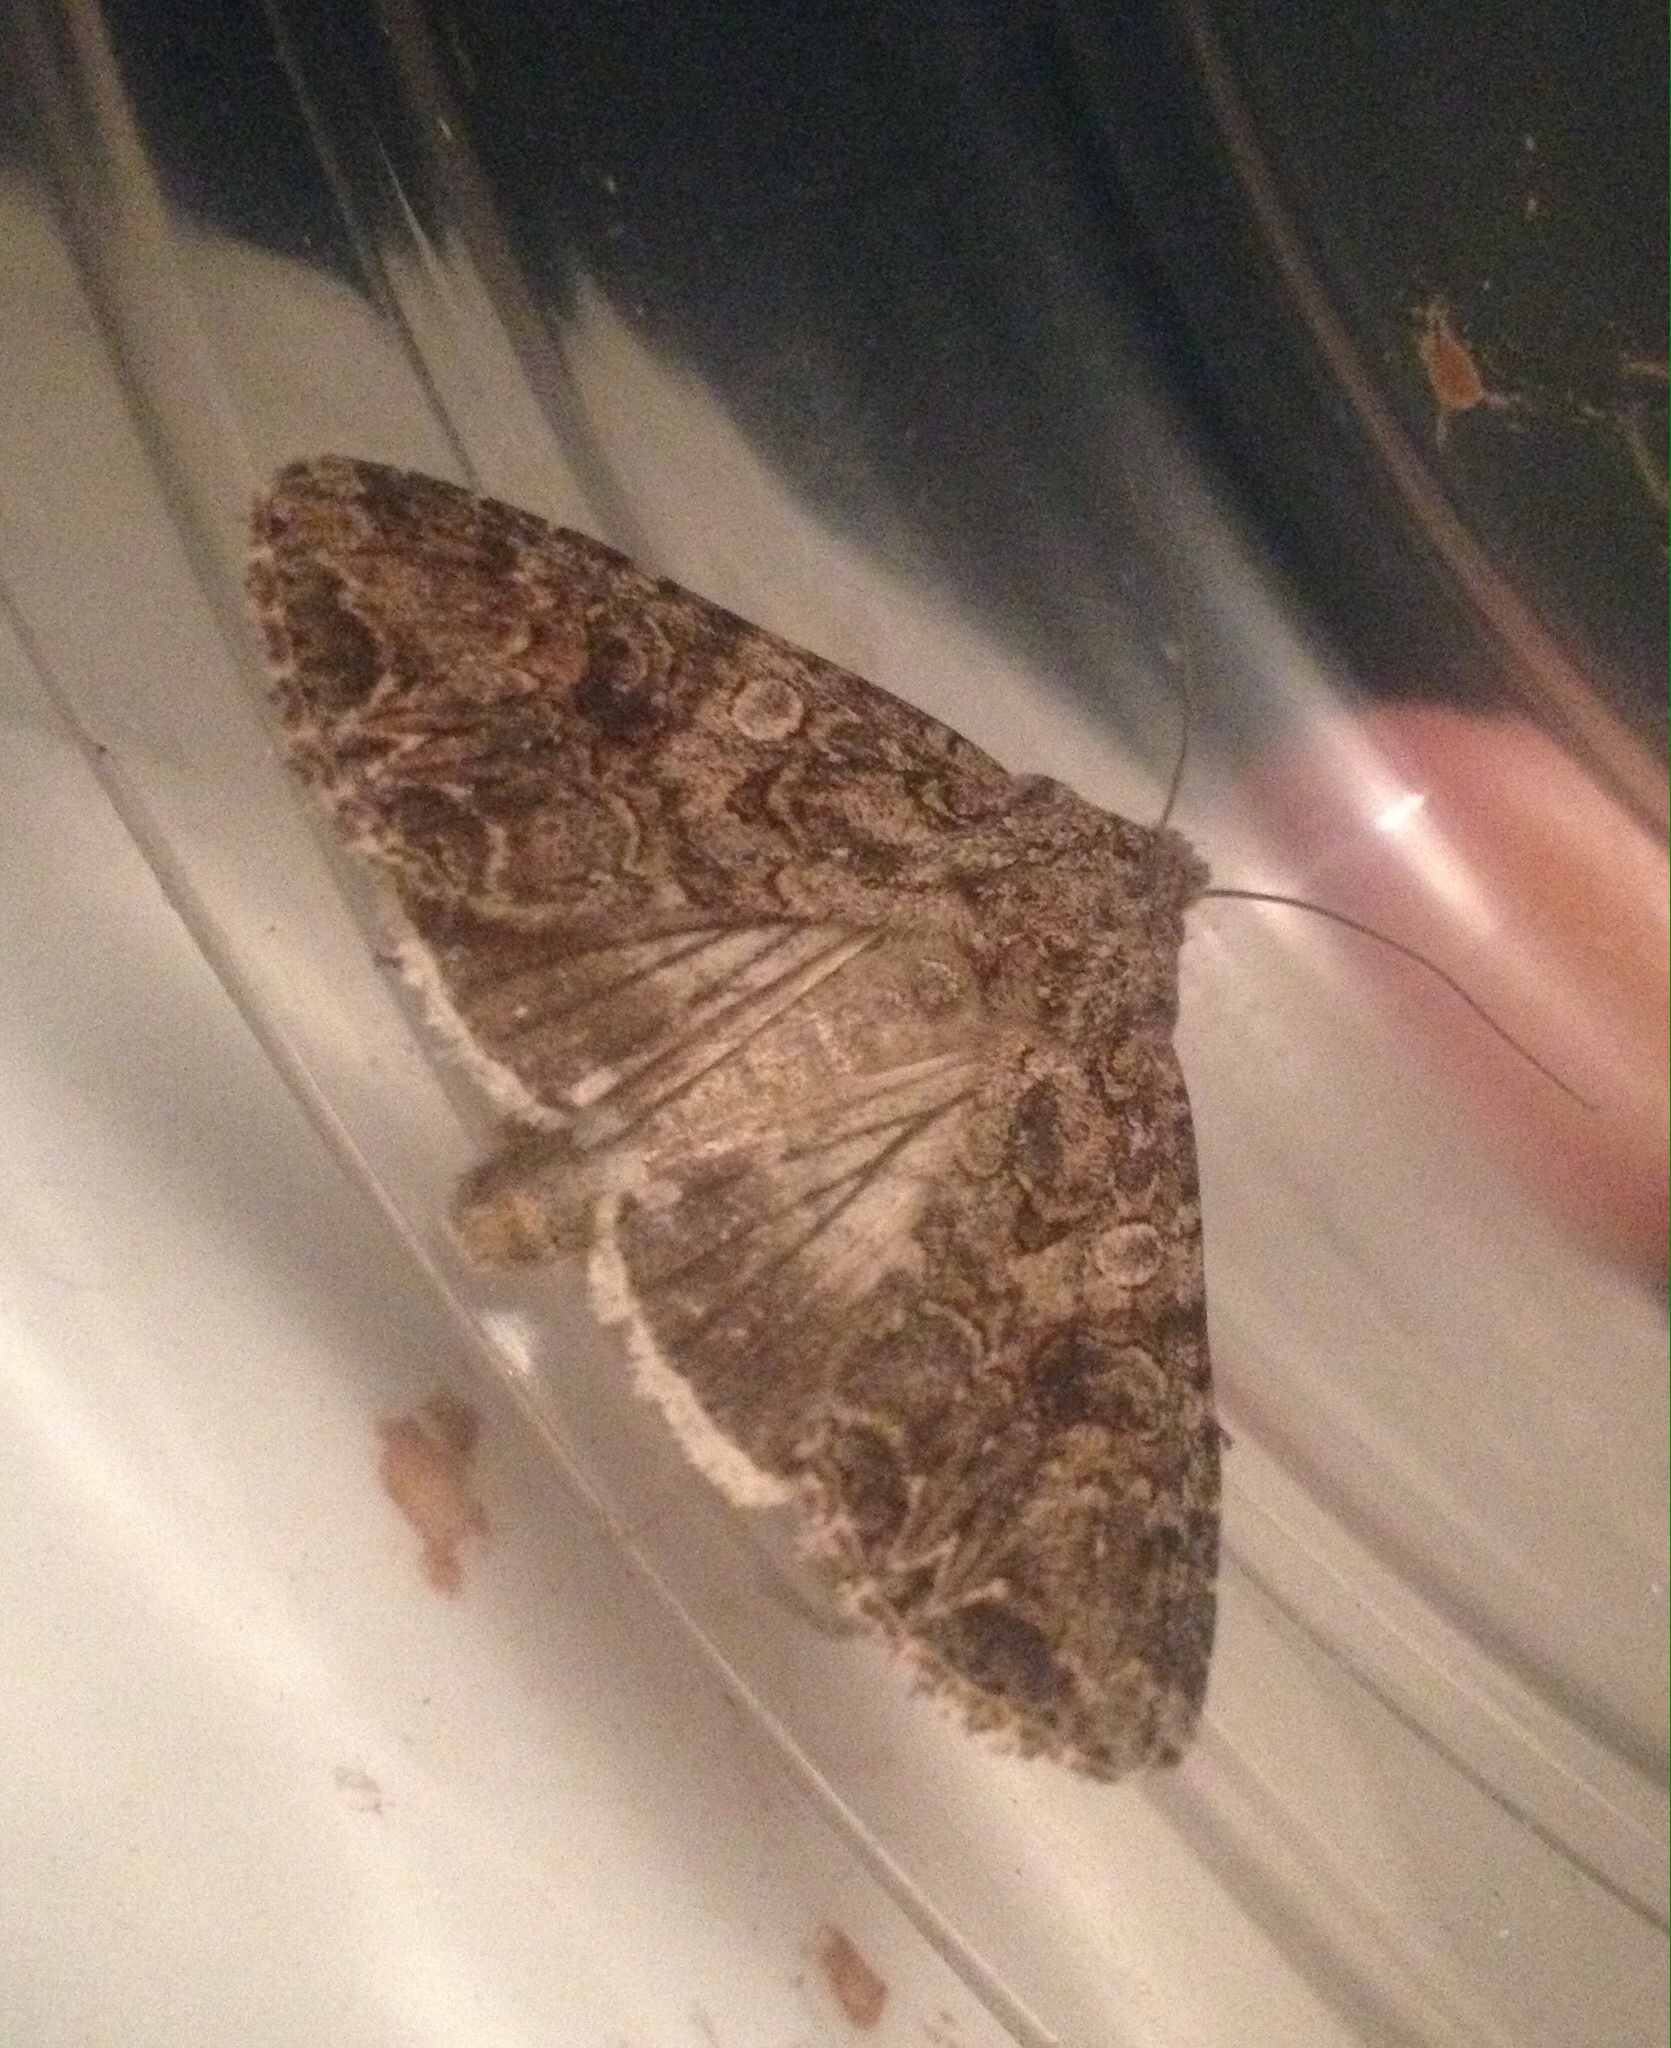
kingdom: Animalia
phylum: Arthropoda
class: Insecta
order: Lepidoptera
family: Noctuidae
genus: Anarta
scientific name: Anarta trifolii
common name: Clover cutworm moth
